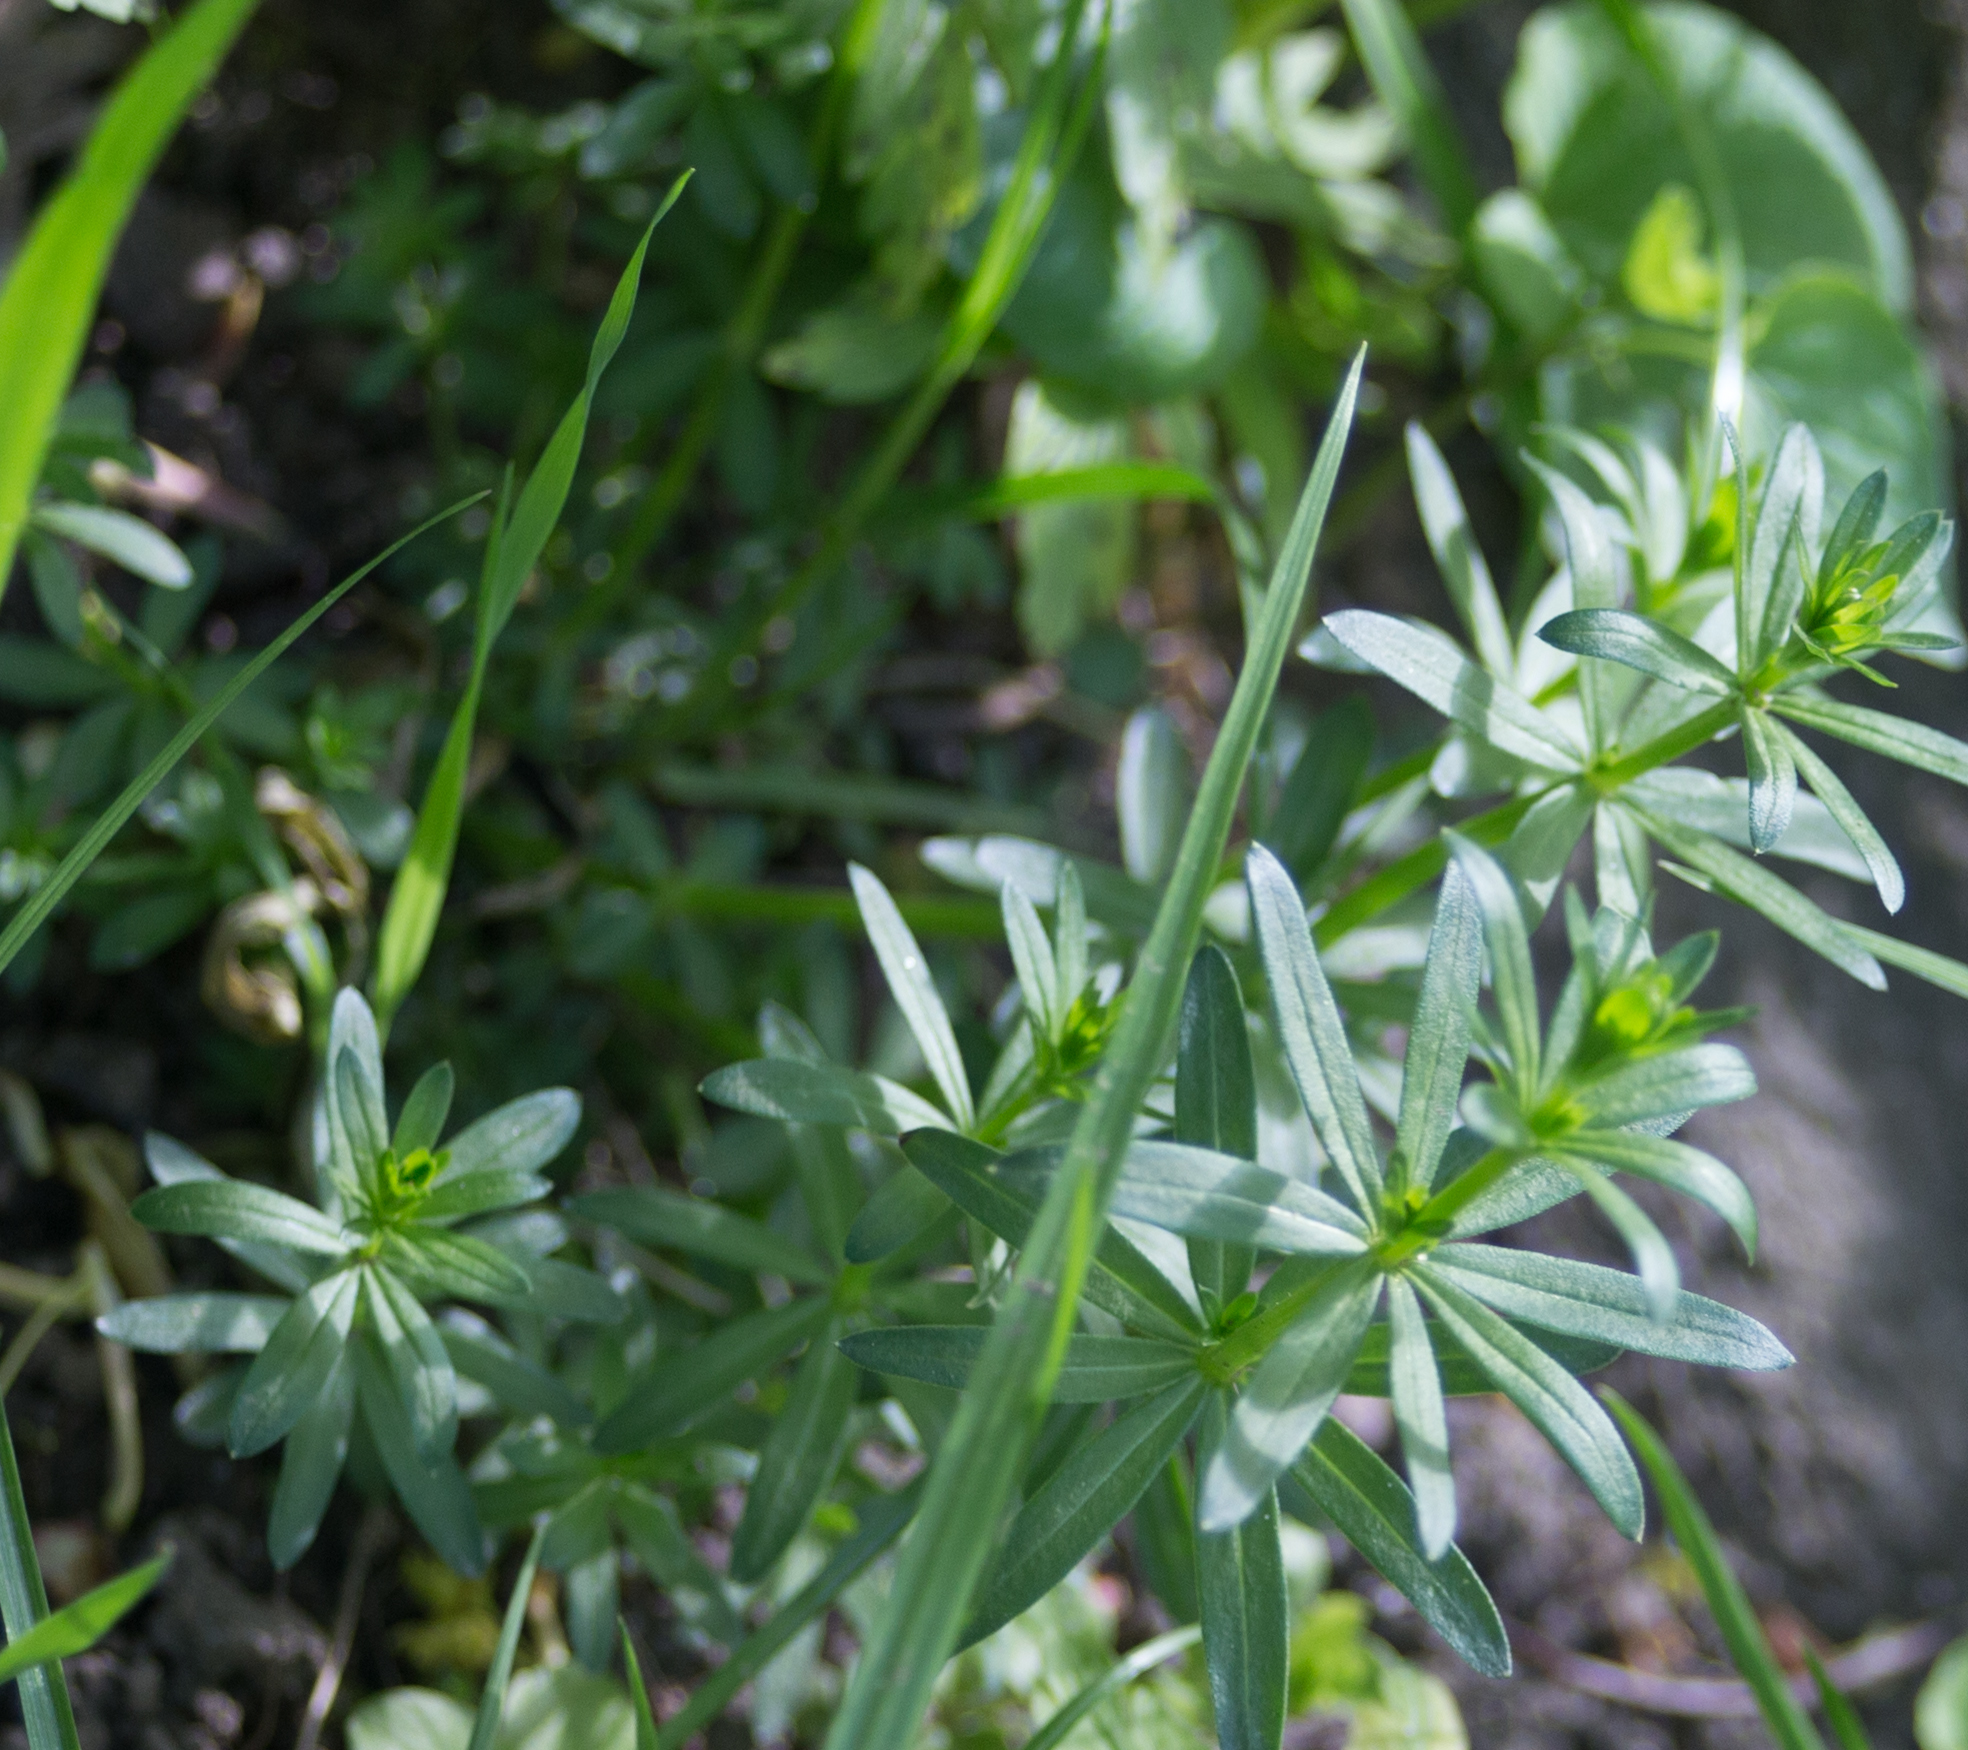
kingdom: Plantae
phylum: Tracheophyta
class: Magnoliopsida
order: Gentianales
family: Rubiaceae
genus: Galium
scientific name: Galium mollugo
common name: Hedge bedstraw
